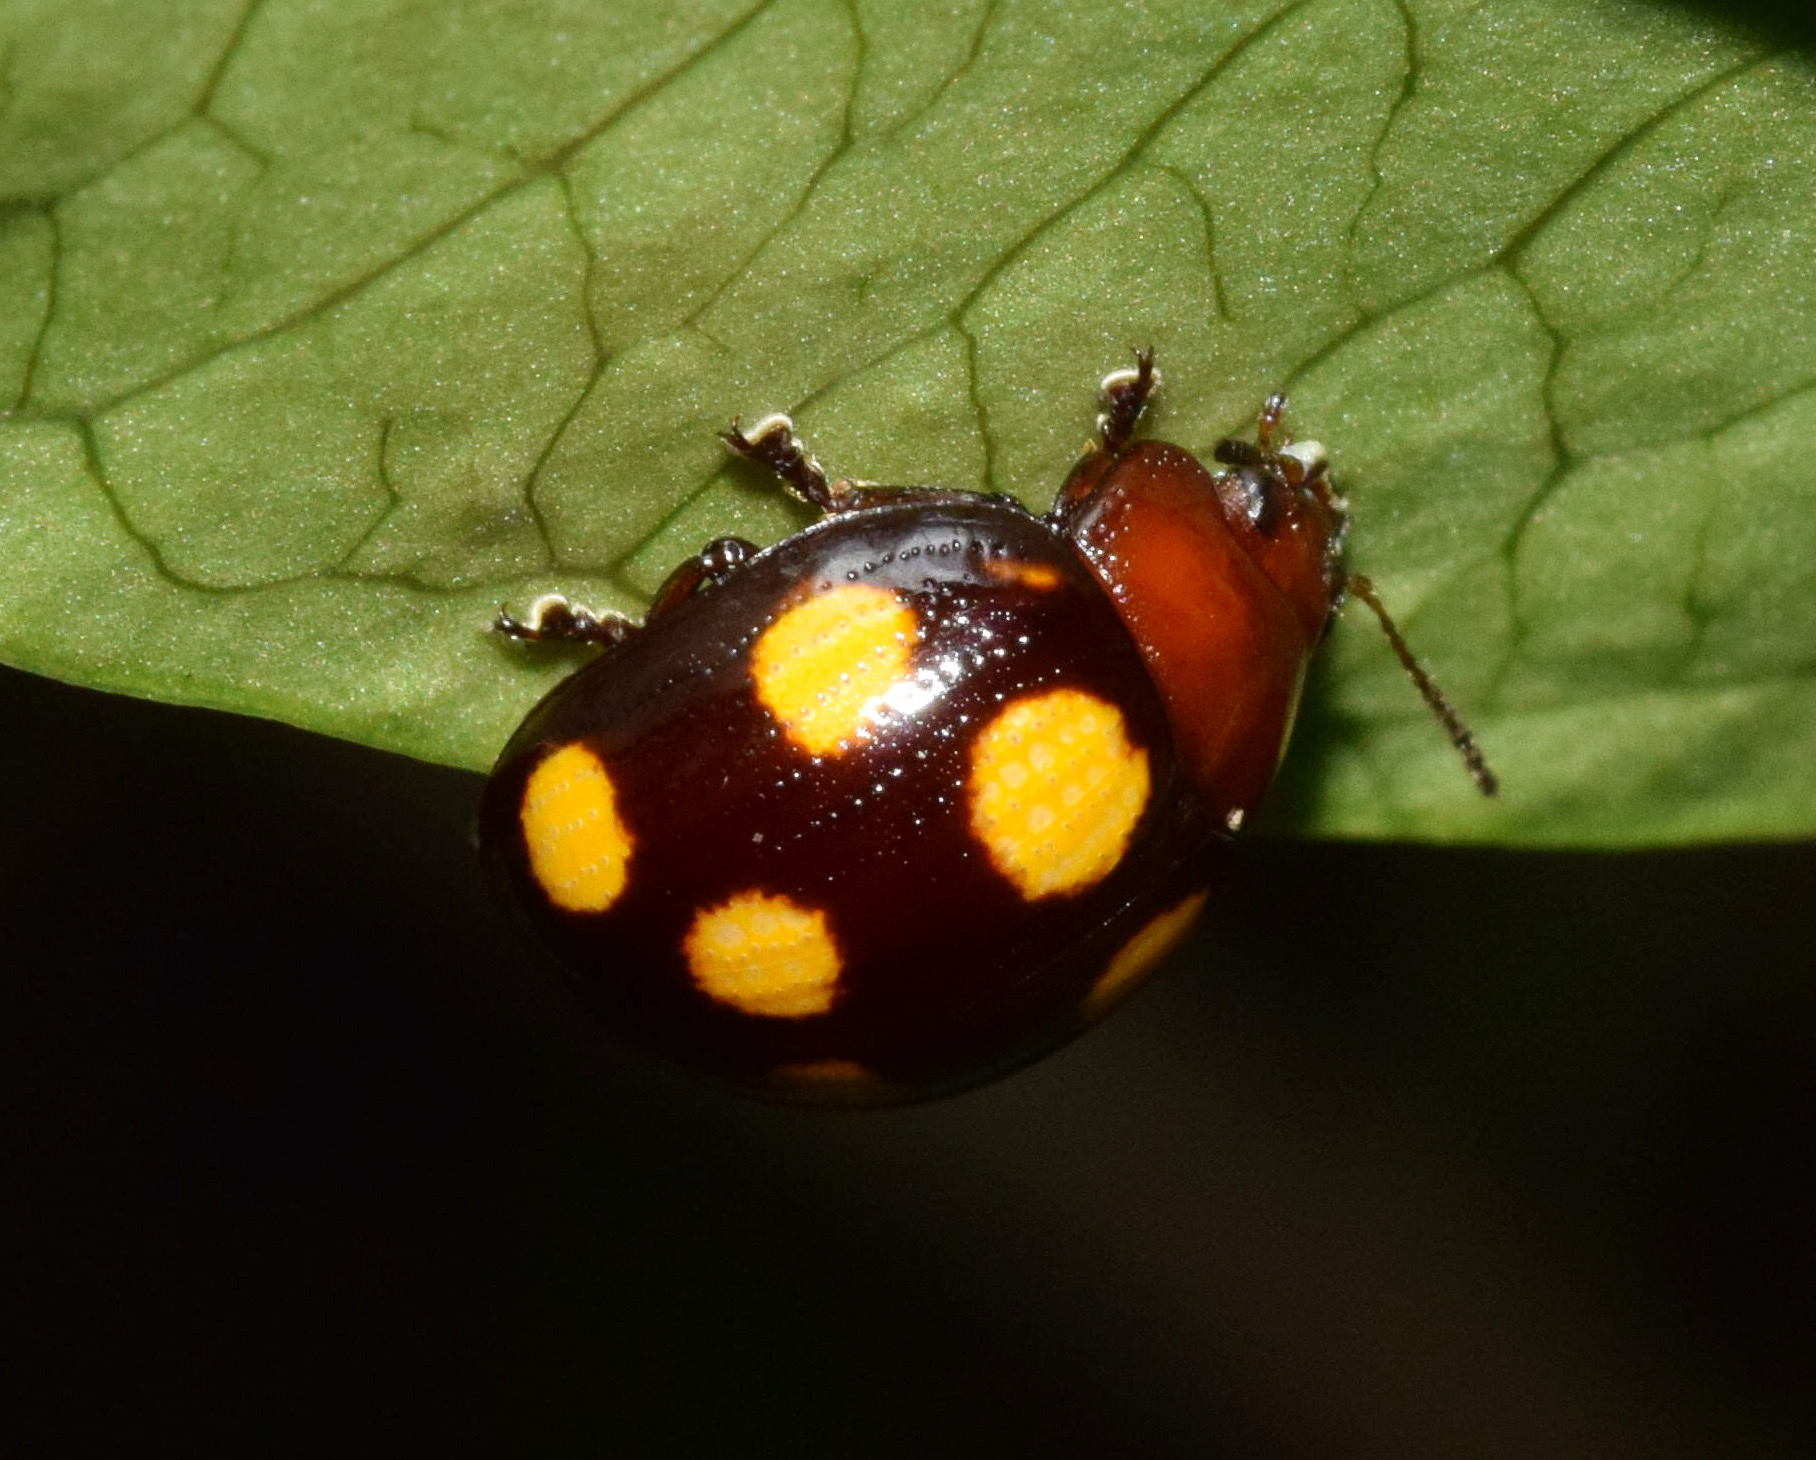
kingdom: Animalia
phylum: Arthropoda
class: Insecta
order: Coleoptera
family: Chrysomelidae
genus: Chrysolina
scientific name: Chrysolina
